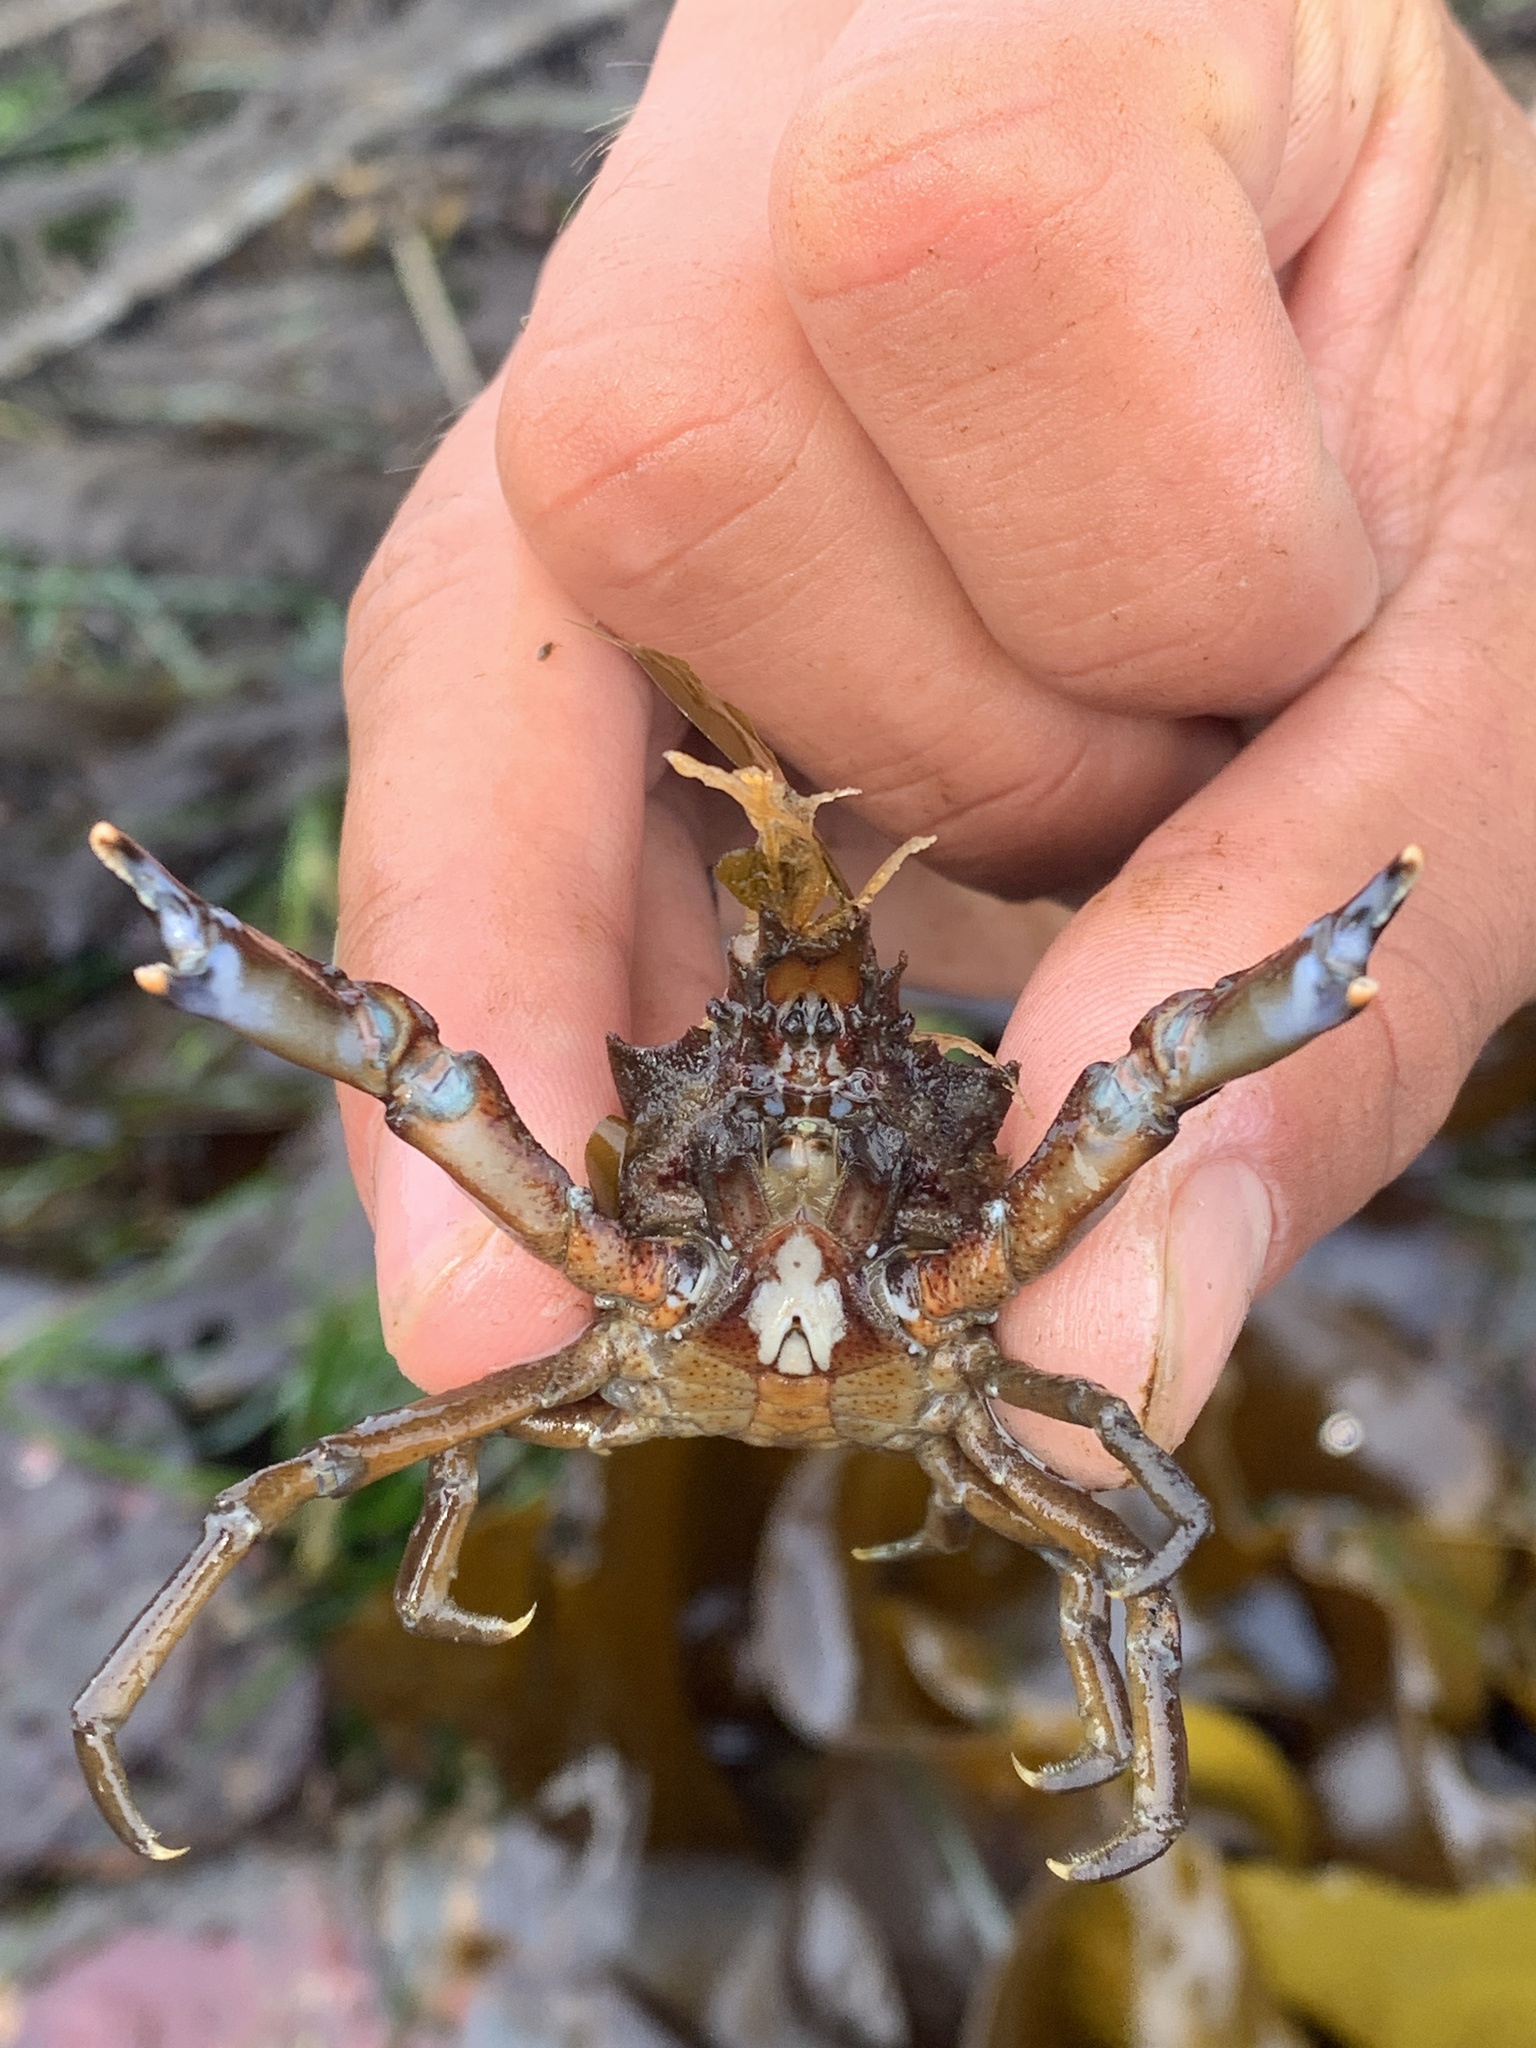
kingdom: Animalia
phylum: Arthropoda
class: Malacostraca
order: Decapoda
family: Epialtidae
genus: Pugettia
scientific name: Pugettia gracilis
